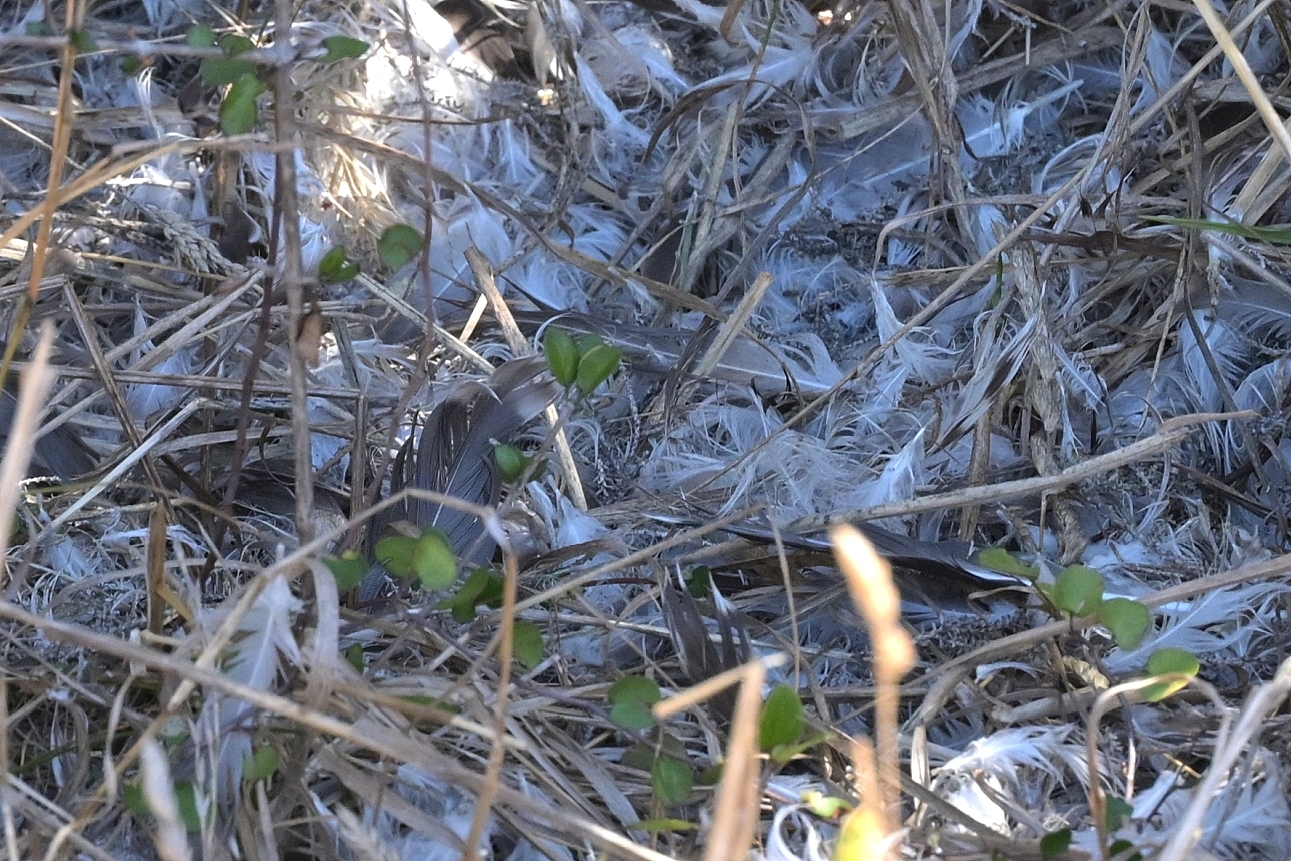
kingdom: Animalia
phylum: Chordata
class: Aves
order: Charadriiformes
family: Laridae
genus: Larus
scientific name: Larus dominicanus
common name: Kelp gull
